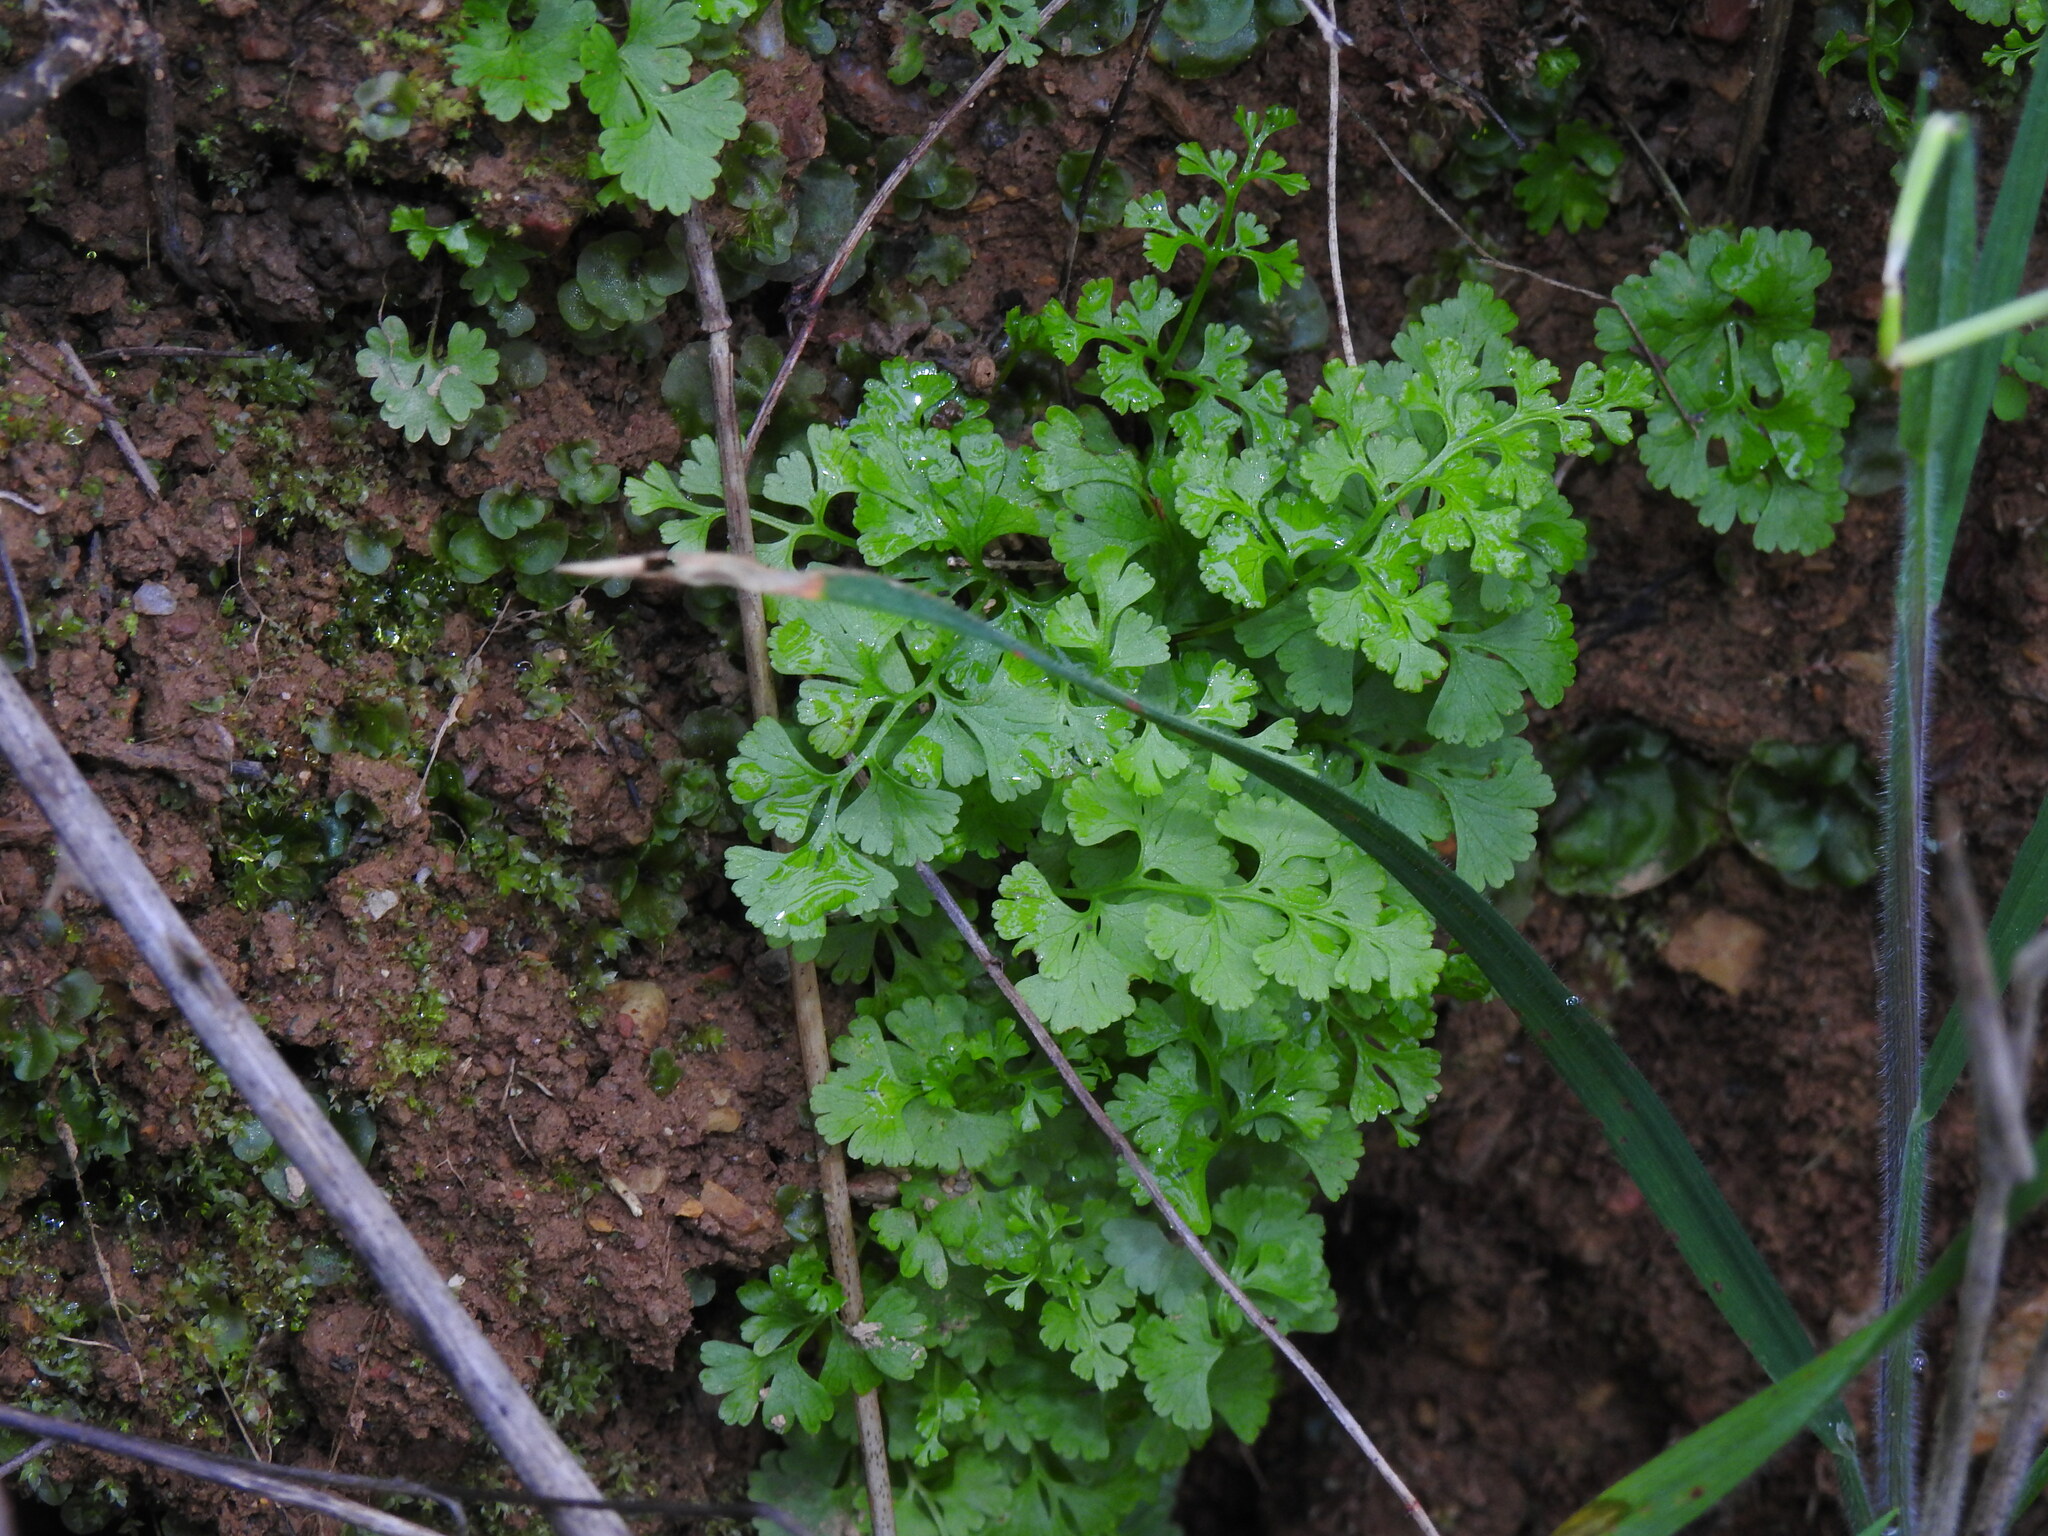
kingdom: Plantae
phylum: Tracheophyta
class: Polypodiopsida
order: Polypodiales
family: Pteridaceae
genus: Anogramma
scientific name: Anogramma leptophylla
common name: Jersey fern
